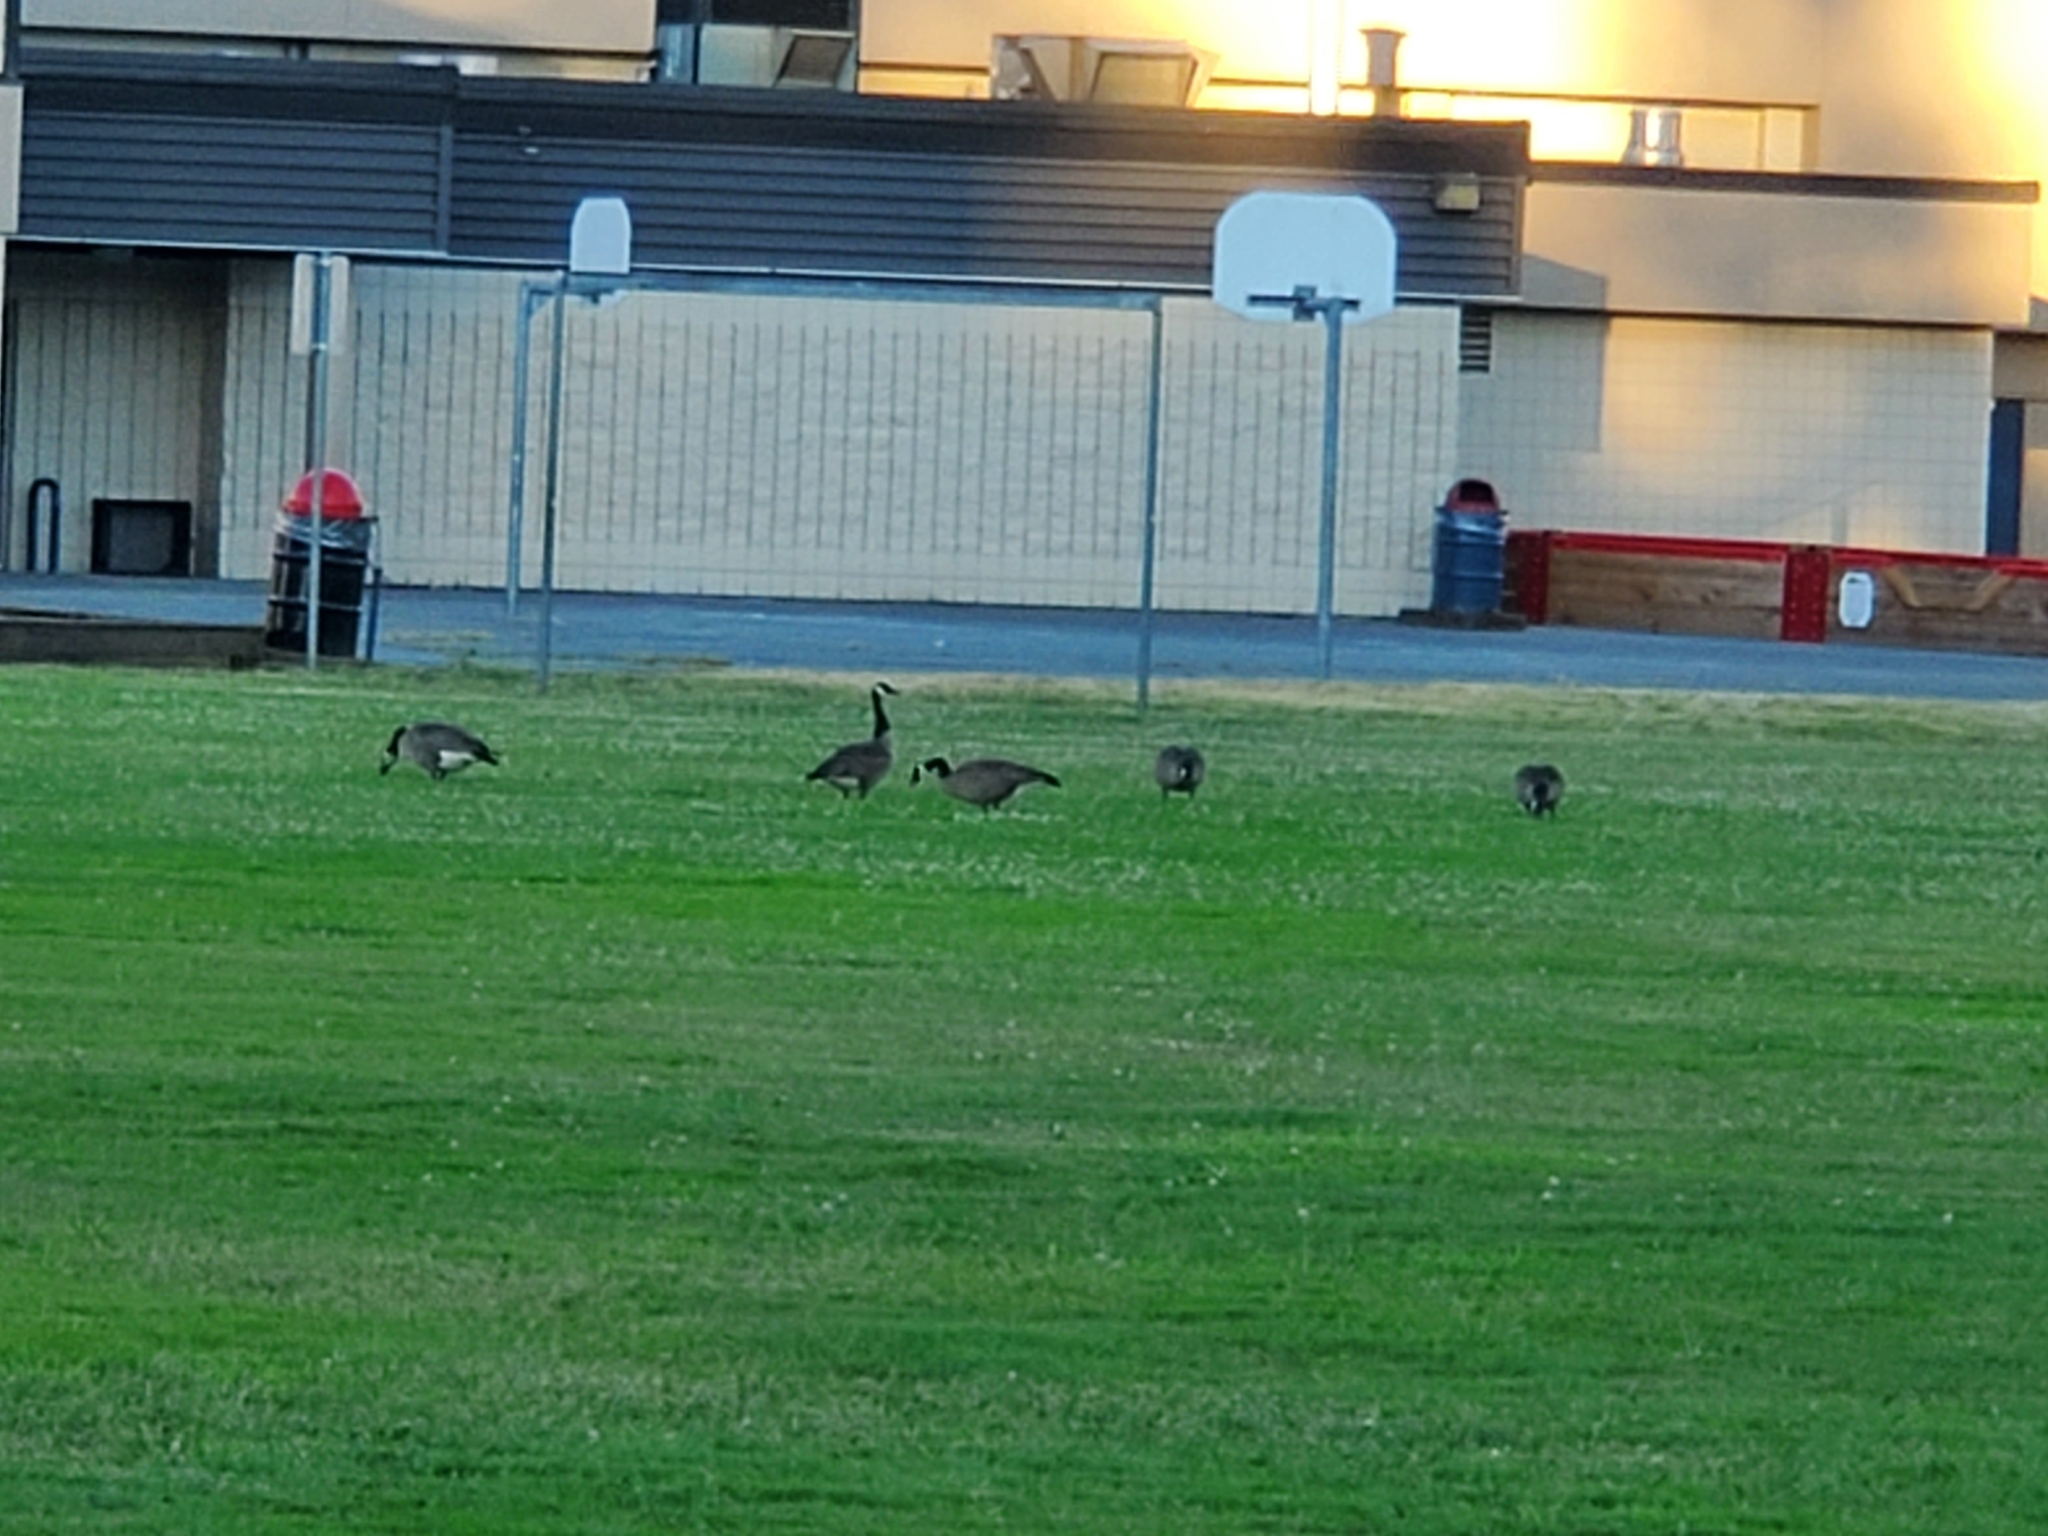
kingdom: Animalia
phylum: Chordata
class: Aves
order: Anseriformes
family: Anatidae
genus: Branta
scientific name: Branta canadensis
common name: Canada goose
